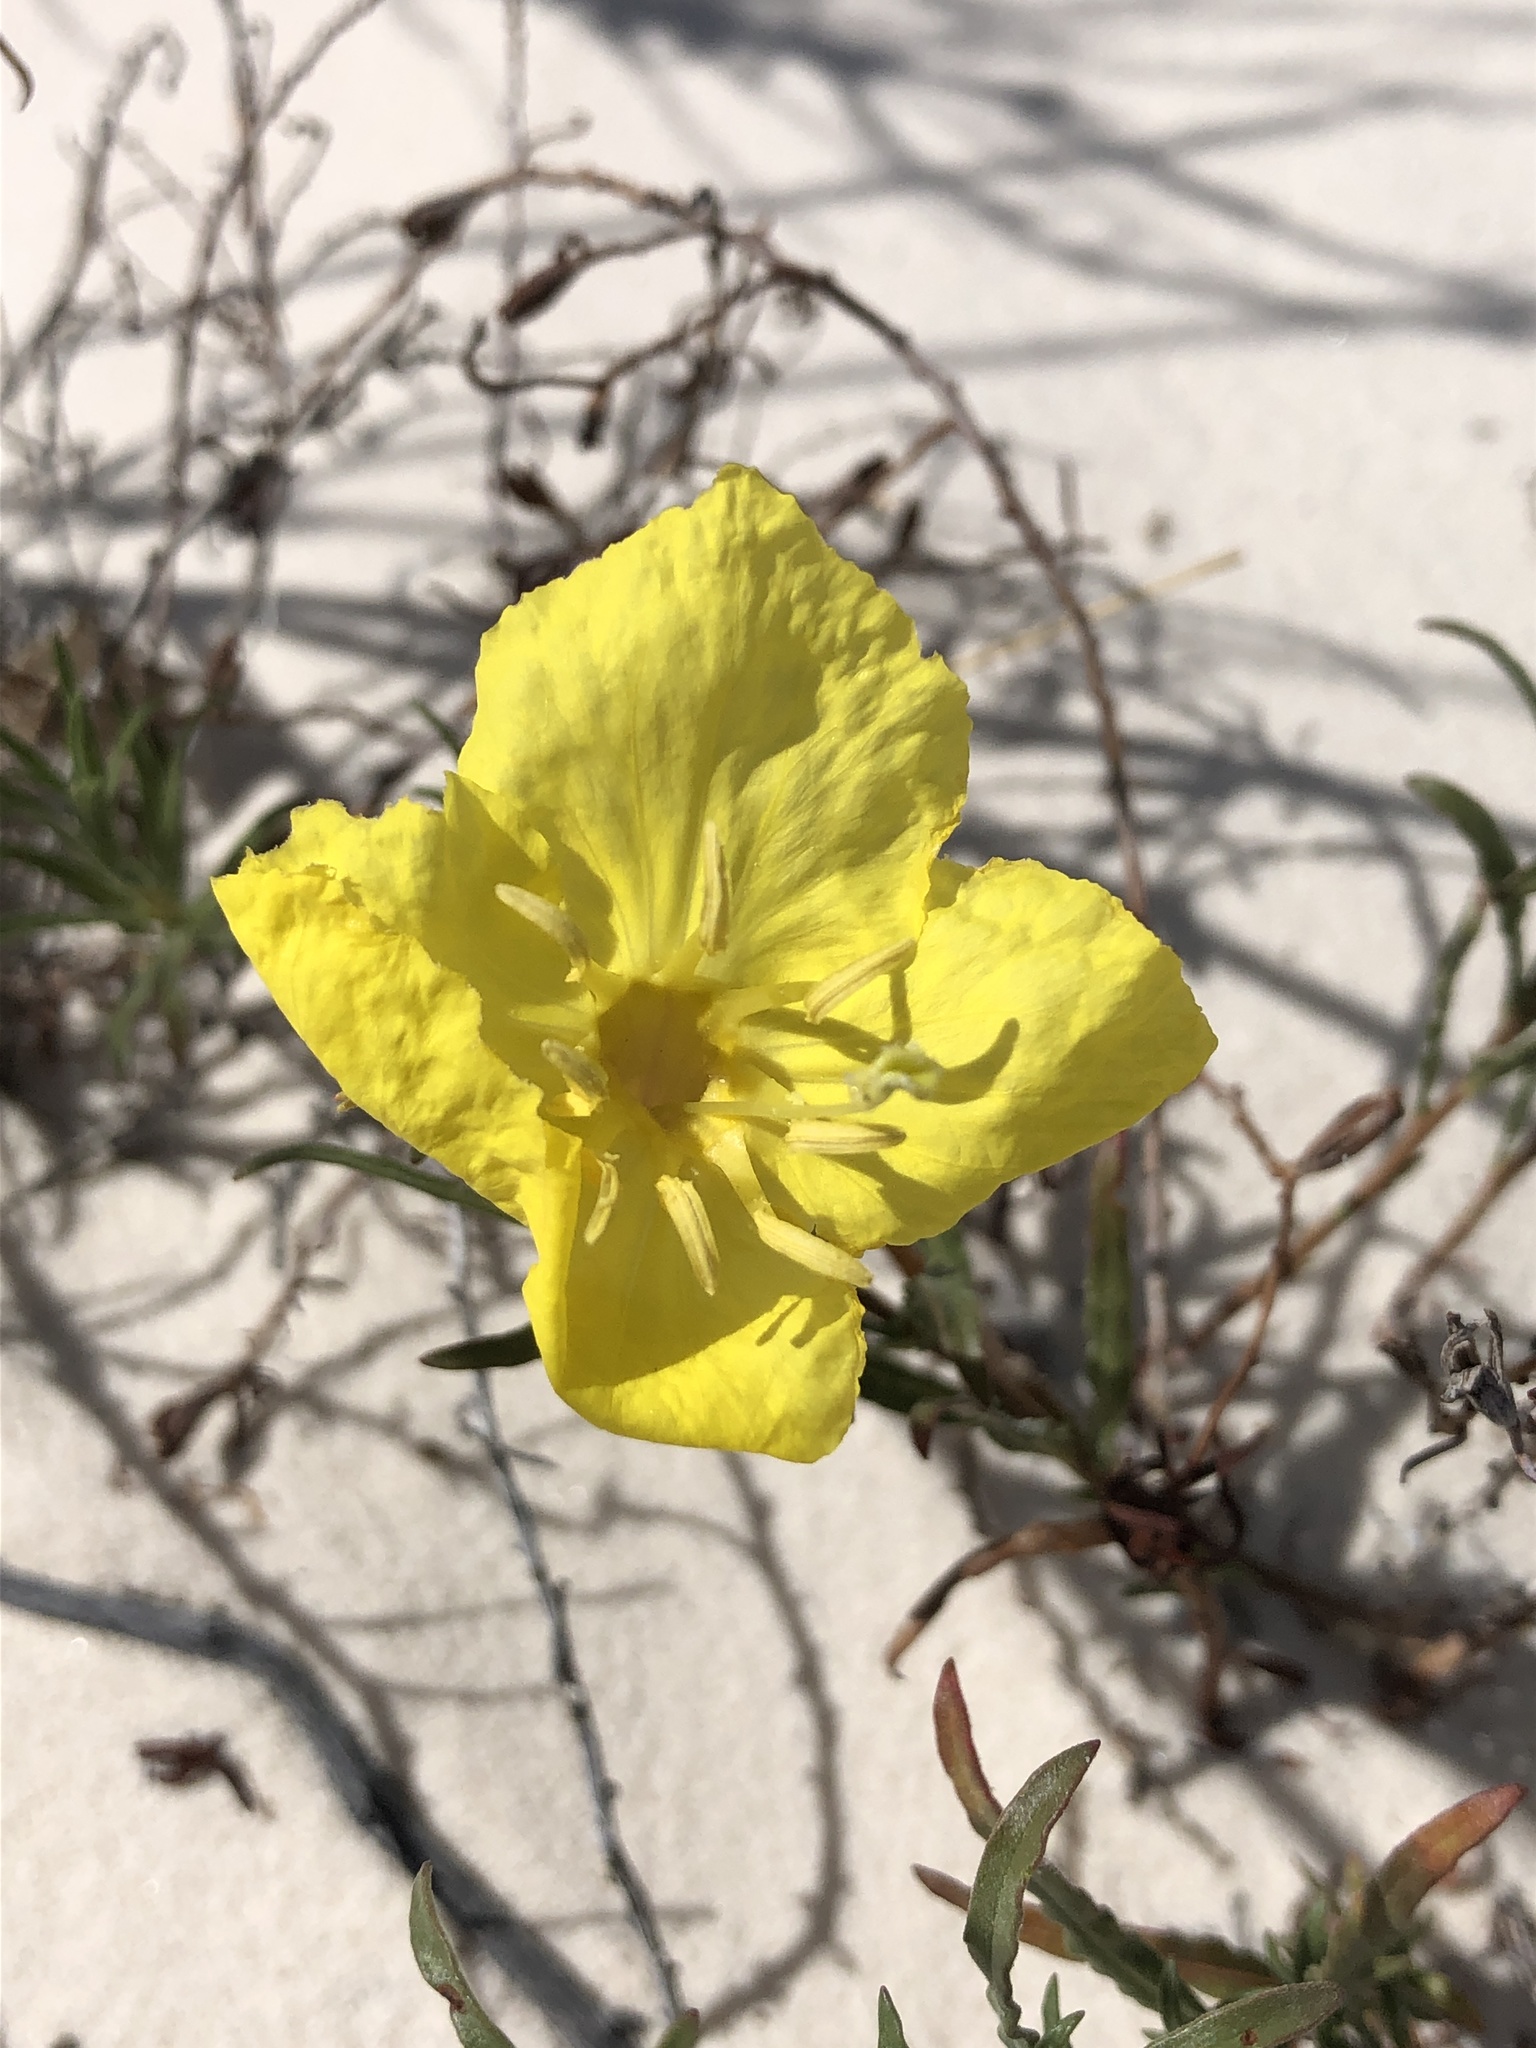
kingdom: Plantae
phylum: Tracheophyta
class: Magnoliopsida
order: Myrtales
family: Onagraceae
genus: Oenothera
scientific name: Oenothera hartwegii
